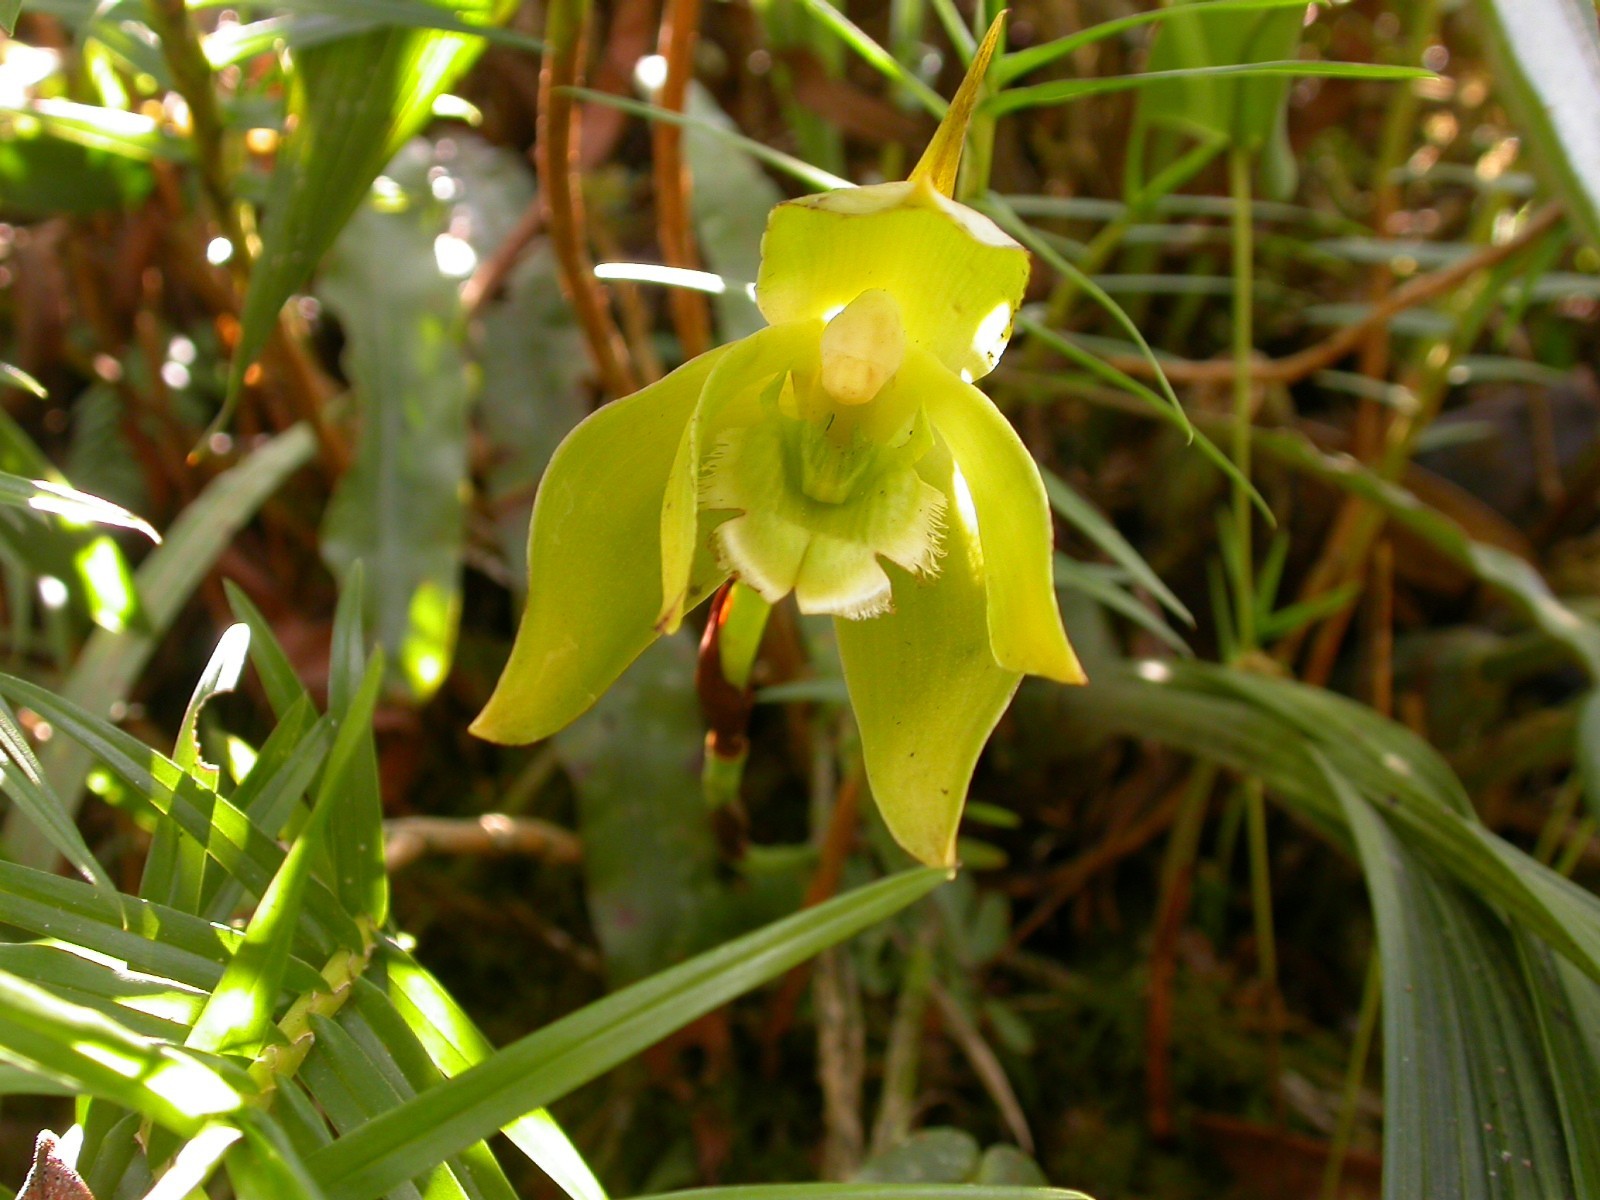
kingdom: Plantae
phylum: Tracheophyta
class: Liliopsida
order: Asparagales
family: Orchidaceae
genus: Ida
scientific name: Ida locusta
